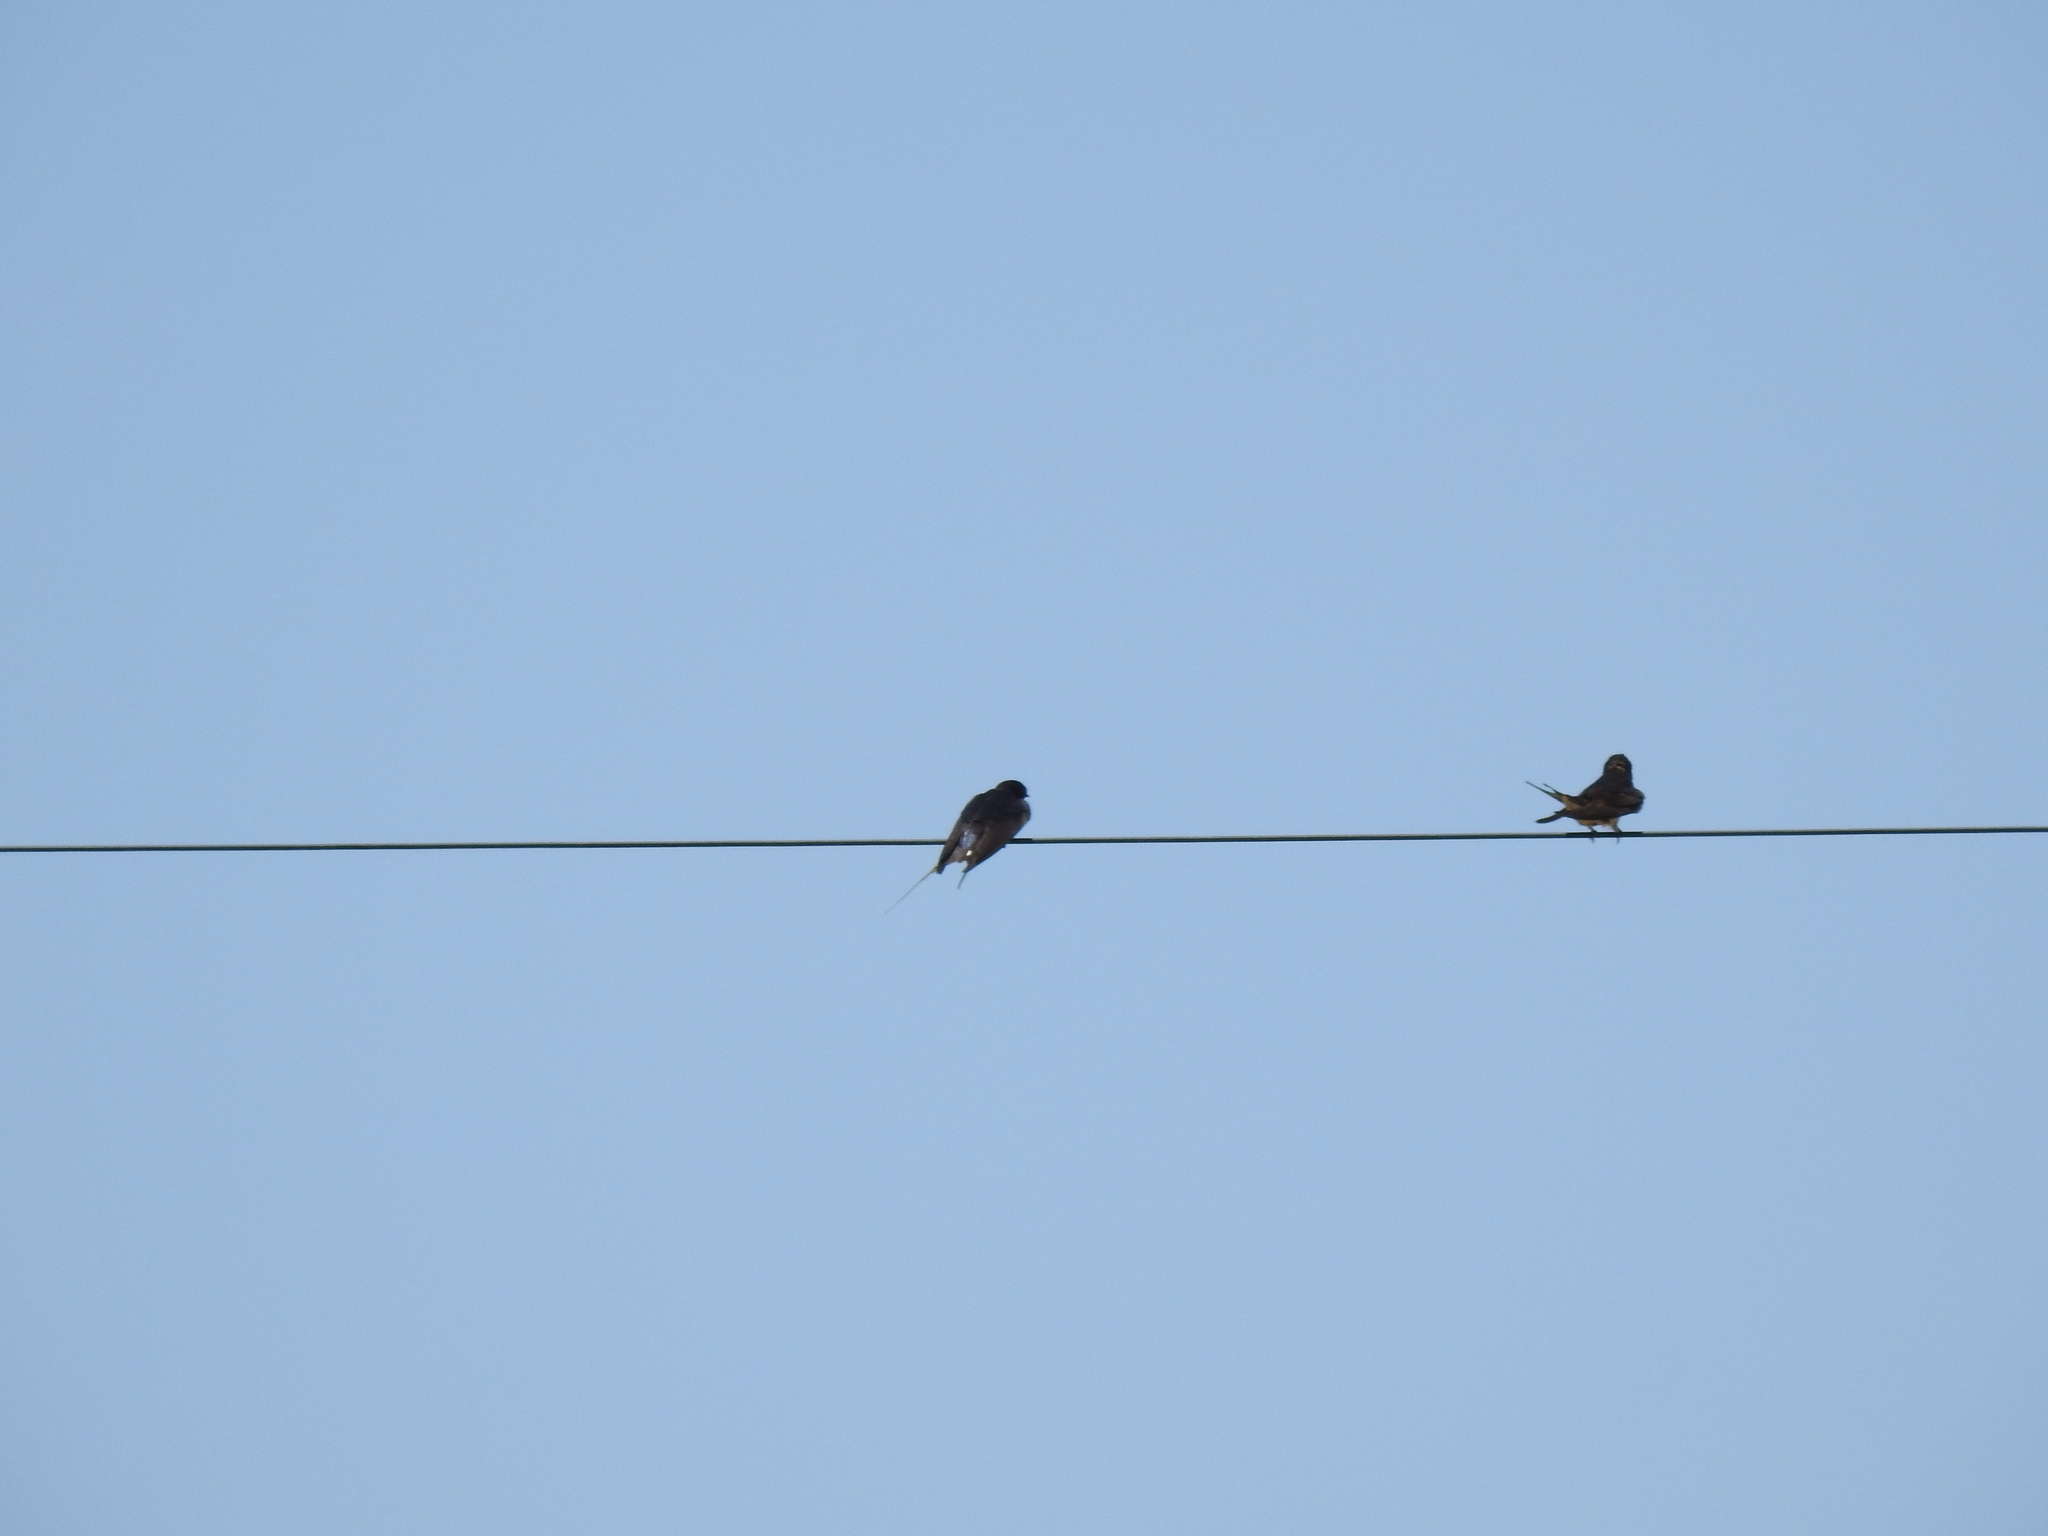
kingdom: Animalia
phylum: Chordata
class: Aves
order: Passeriformes
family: Hirundinidae
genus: Hirundo
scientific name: Hirundo rustica
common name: Barn swallow
